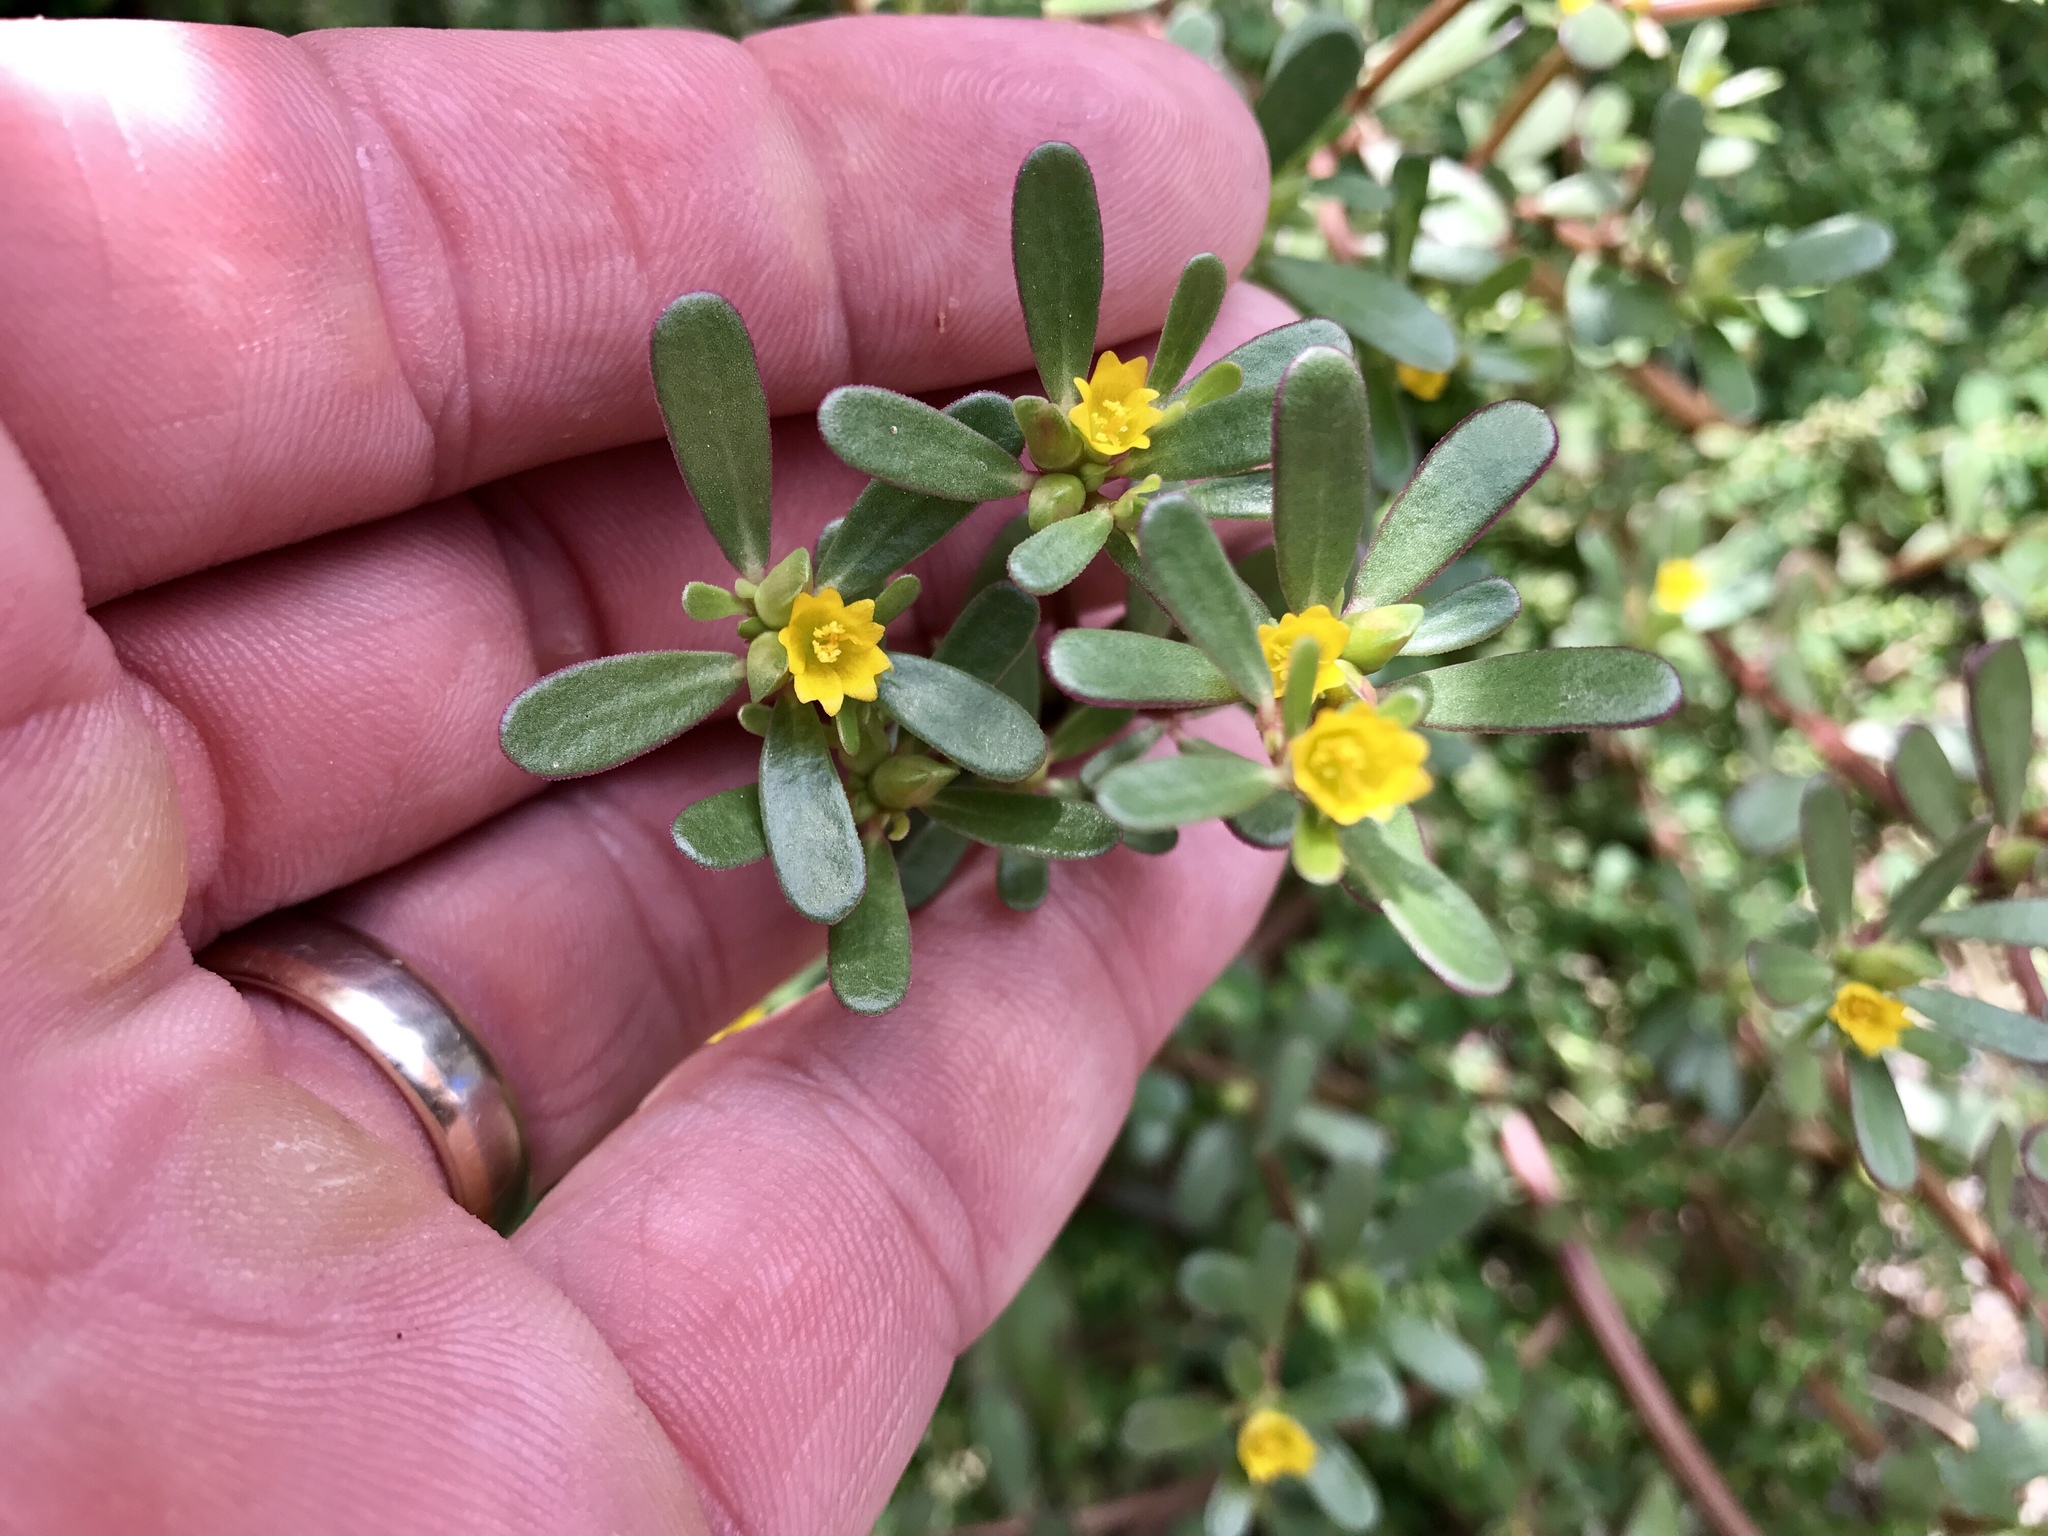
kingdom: Plantae
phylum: Tracheophyta
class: Magnoliopsida
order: Caryophyllales
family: Portulacaceae
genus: Portulaca
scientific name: Portulaca oleracea
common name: Common purslane
